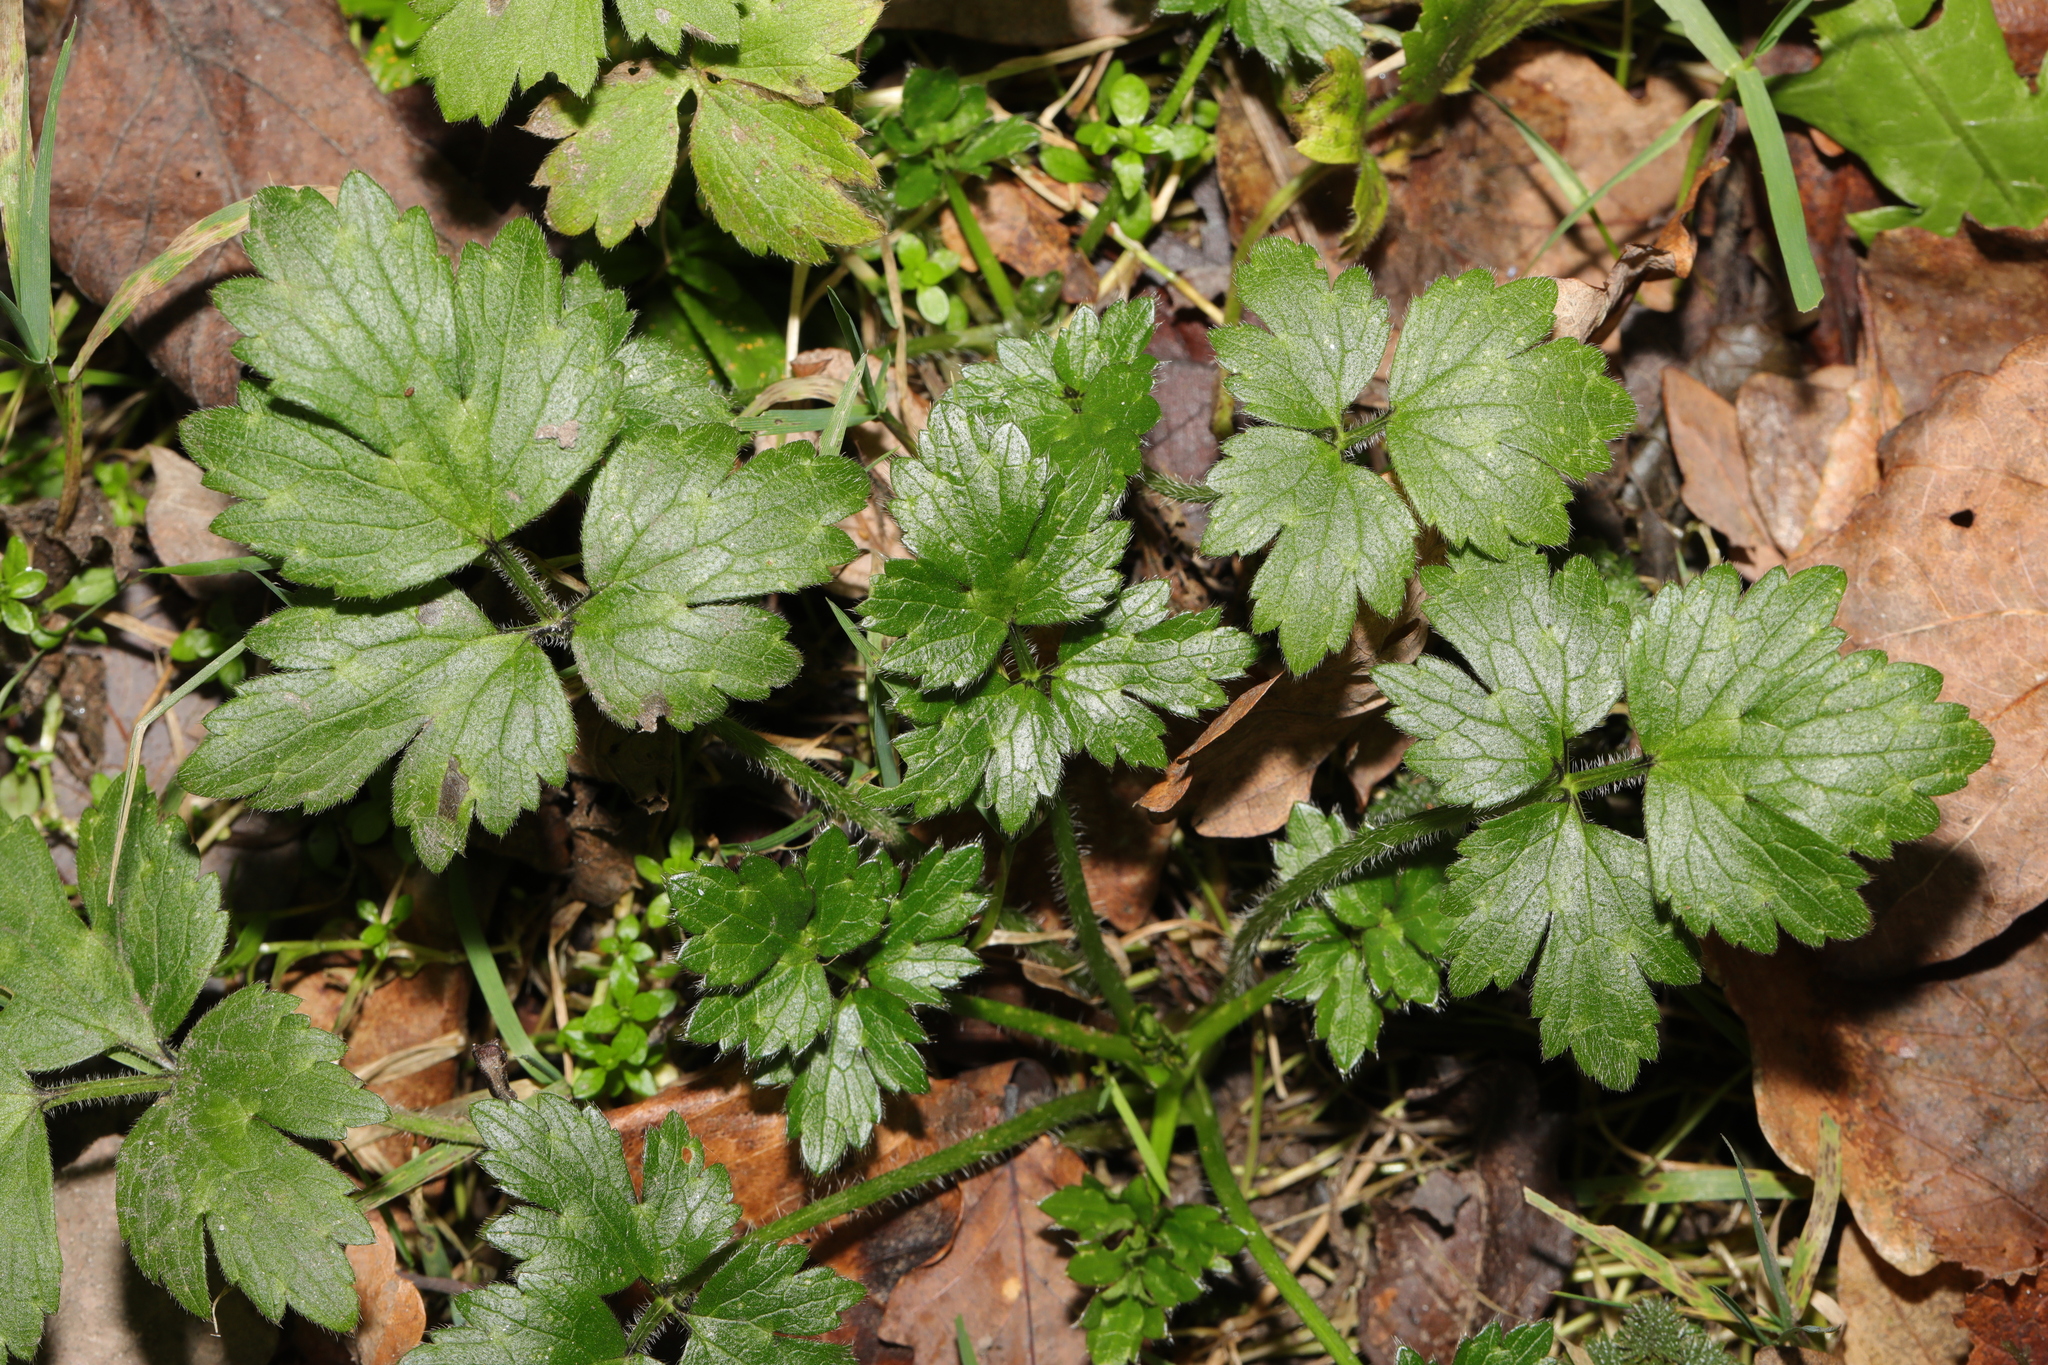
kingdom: Plantae
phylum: Tracheophyta
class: Magnoliopsida
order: Ranunculales
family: Ranunculaceae
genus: Ranunculus
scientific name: Ranunculus repens
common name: Creeping buttercup
